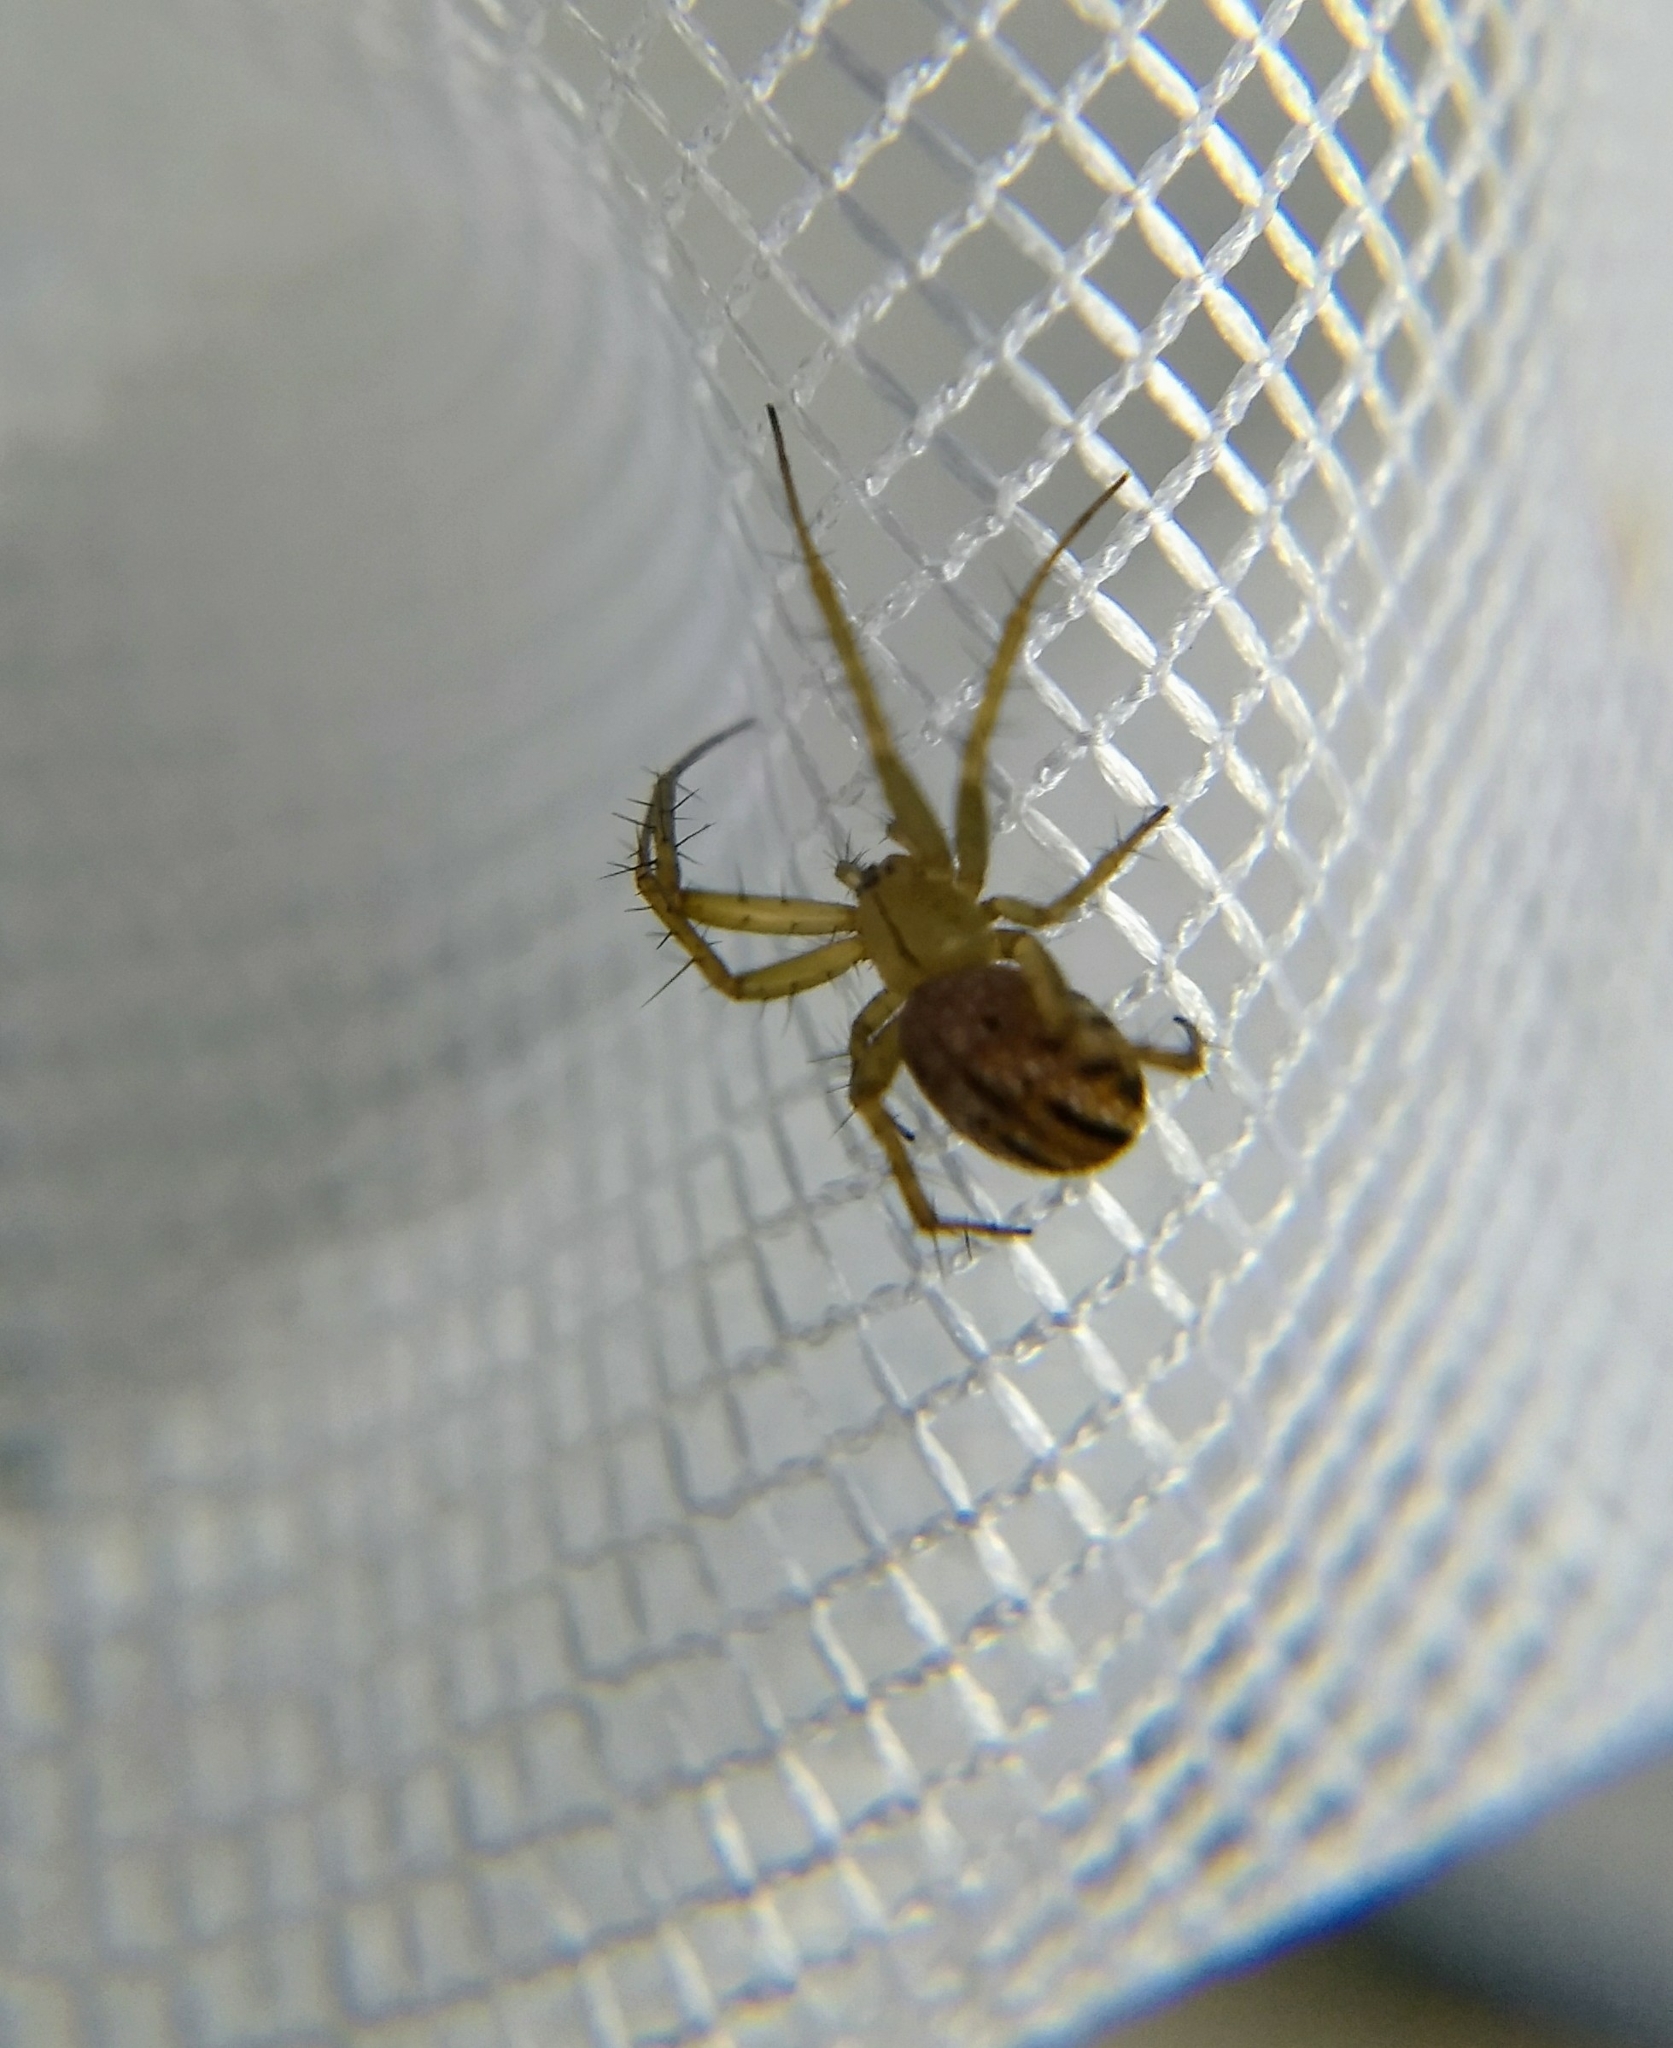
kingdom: Animalia
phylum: Arthropoda
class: Arachnida
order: Araneae
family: Araneidae
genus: Mangora
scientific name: Mangora gibberosa
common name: Lined orbweaver
